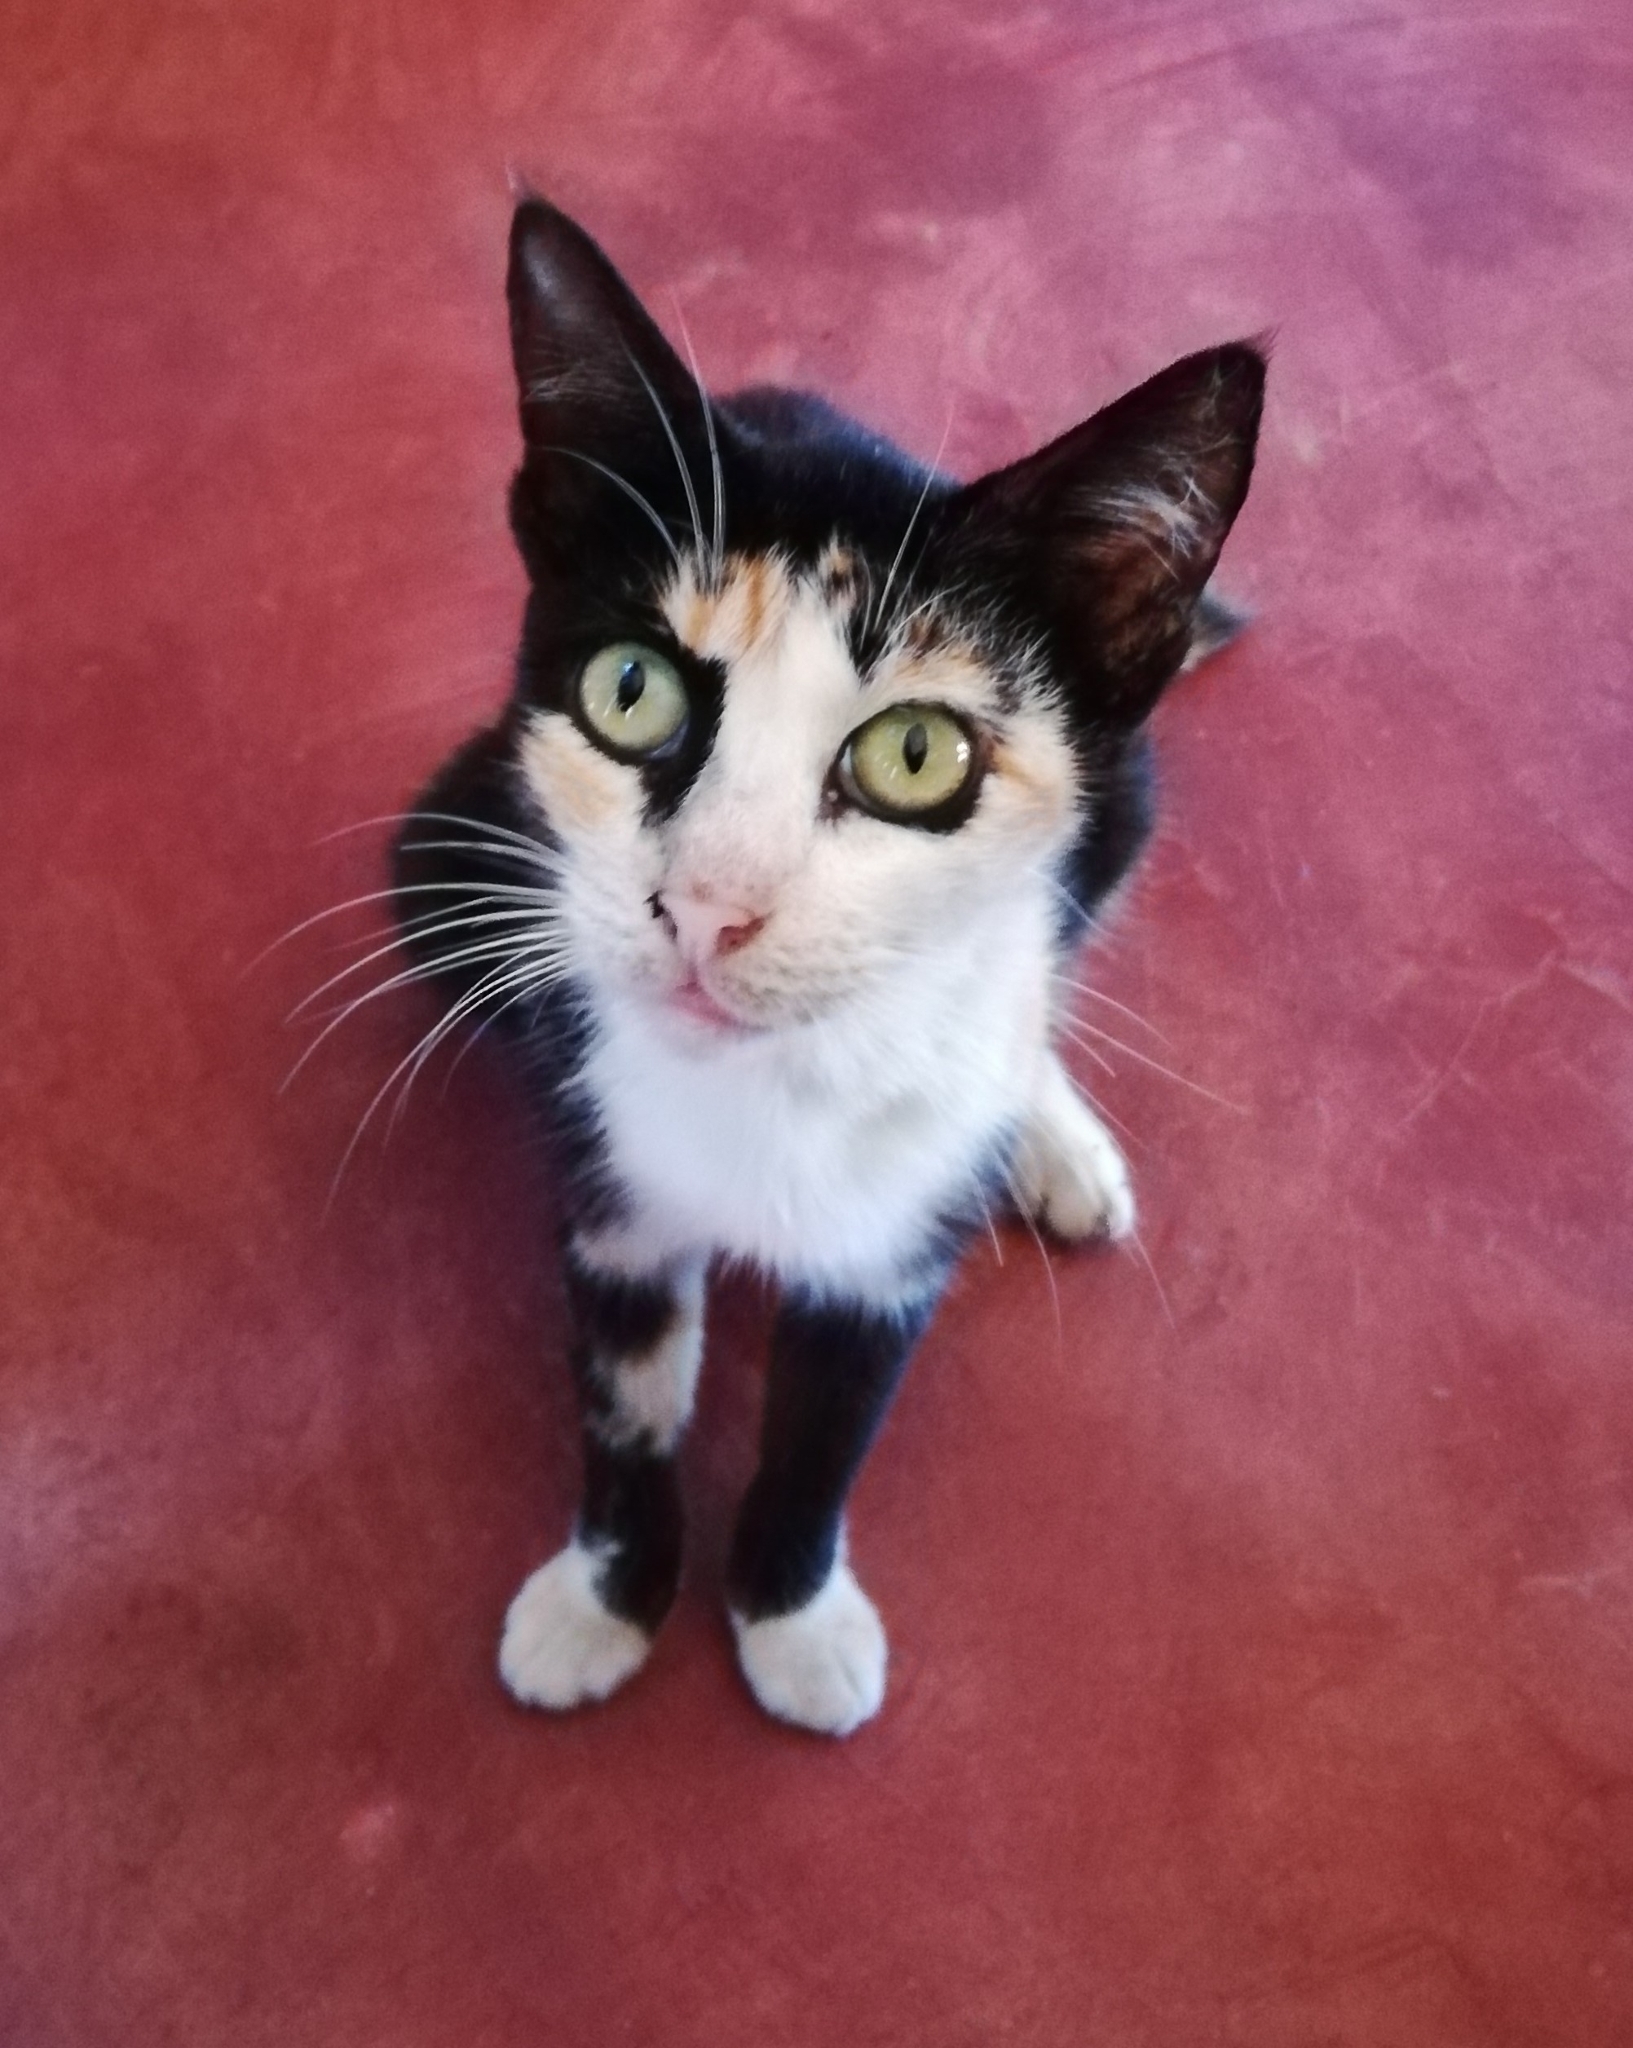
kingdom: Animalia
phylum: Chordata
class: Mammalia
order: Carnivora
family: Felidae
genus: Felis
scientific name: Felis catus
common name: Domestic cat
